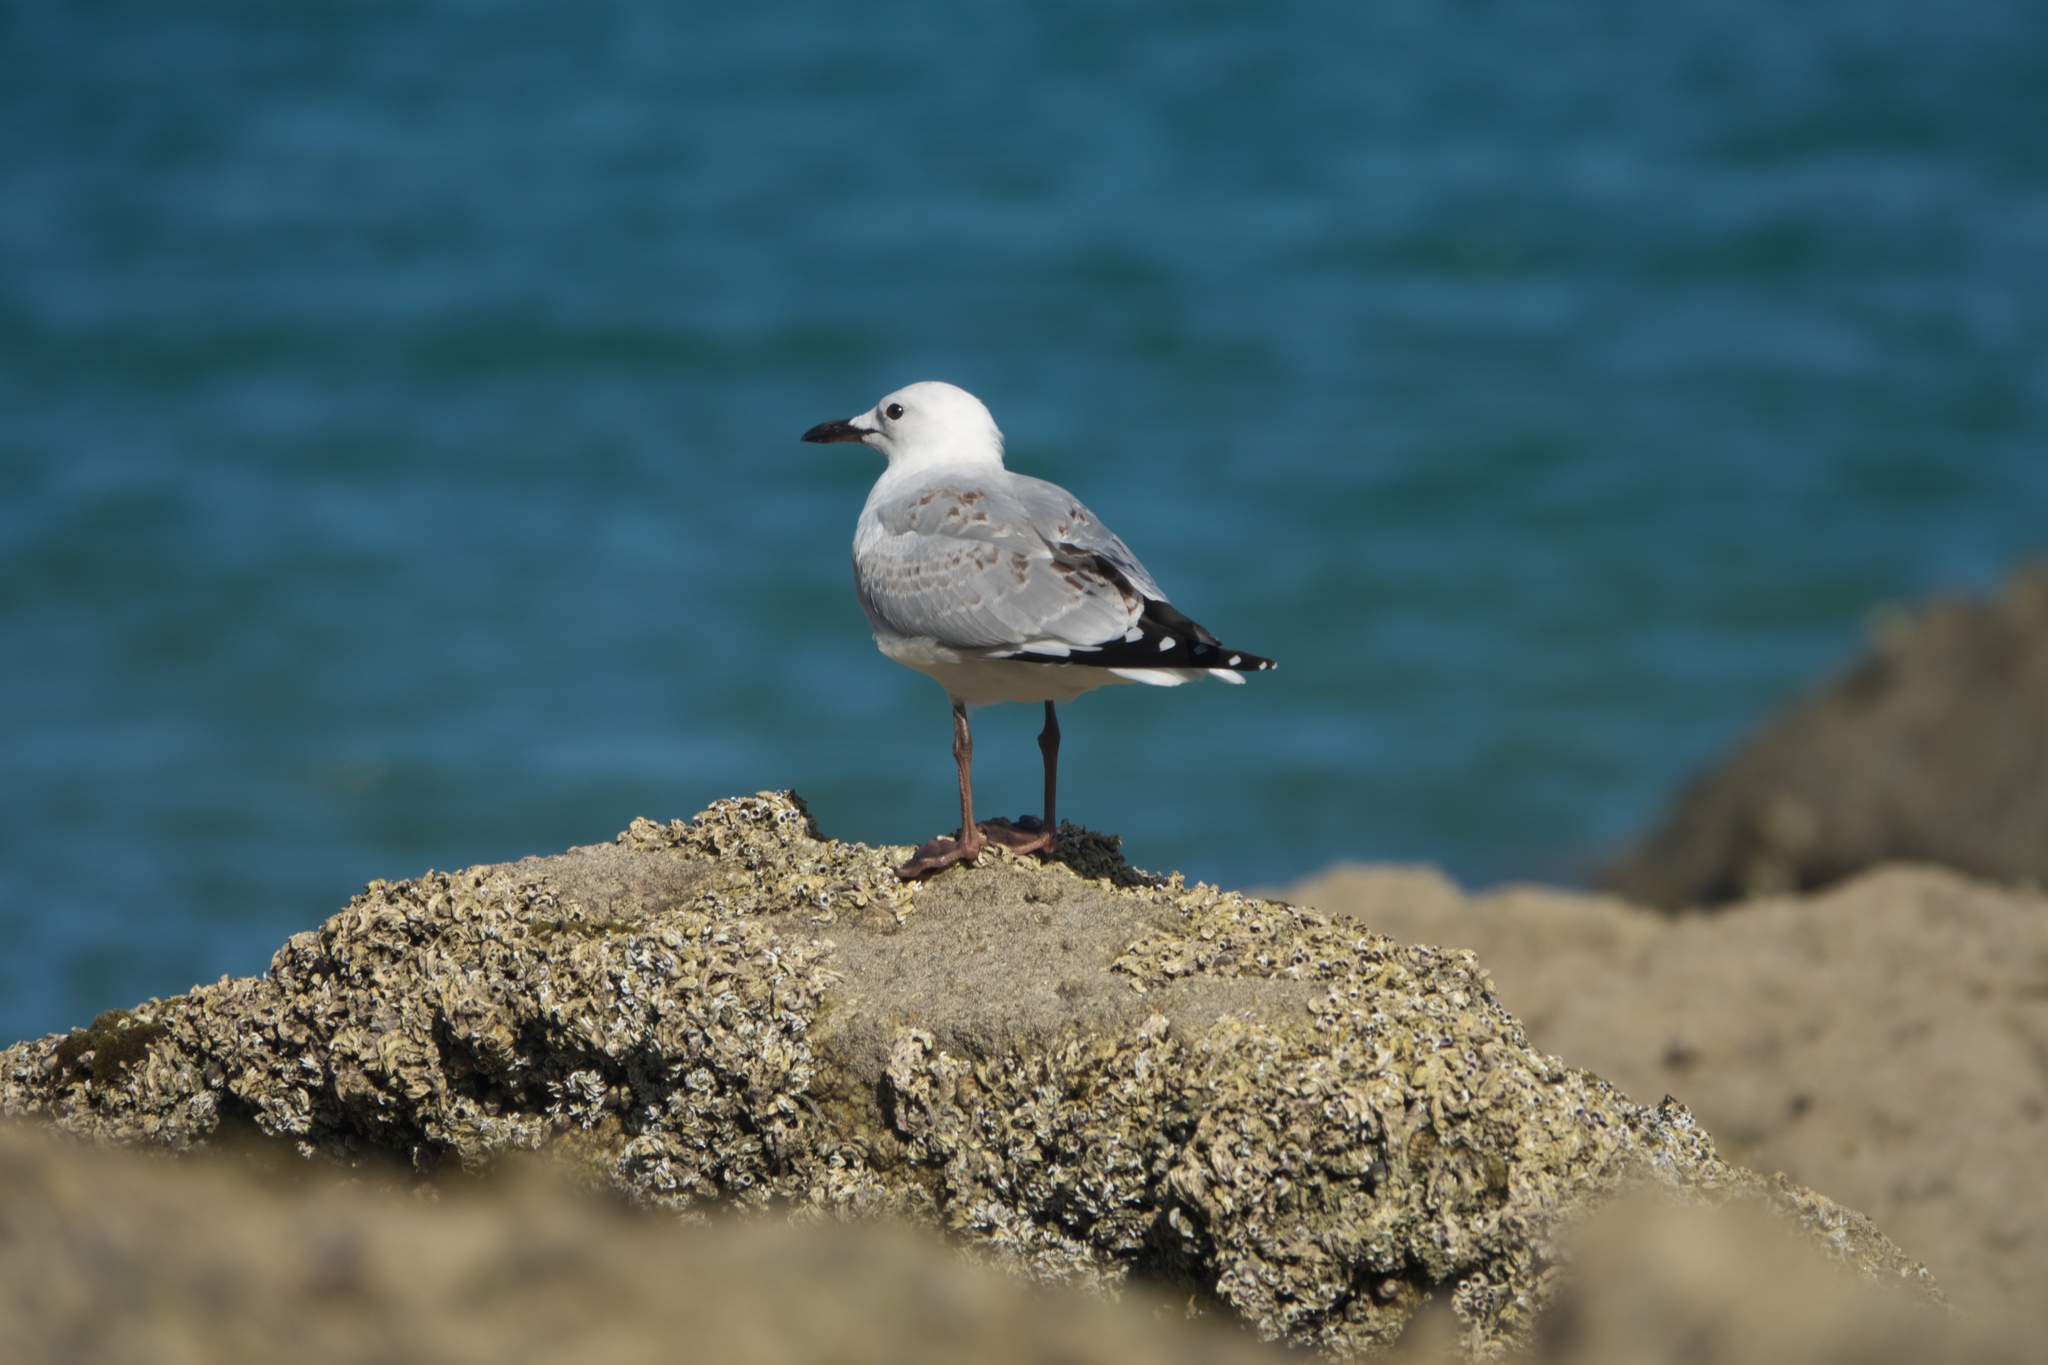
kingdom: Animalia
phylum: Chordata
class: Aves
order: Charadriiformes
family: Laridae
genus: Chroicocephalus
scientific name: Chroicocephalus novaehollandiae
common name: Silver gull
